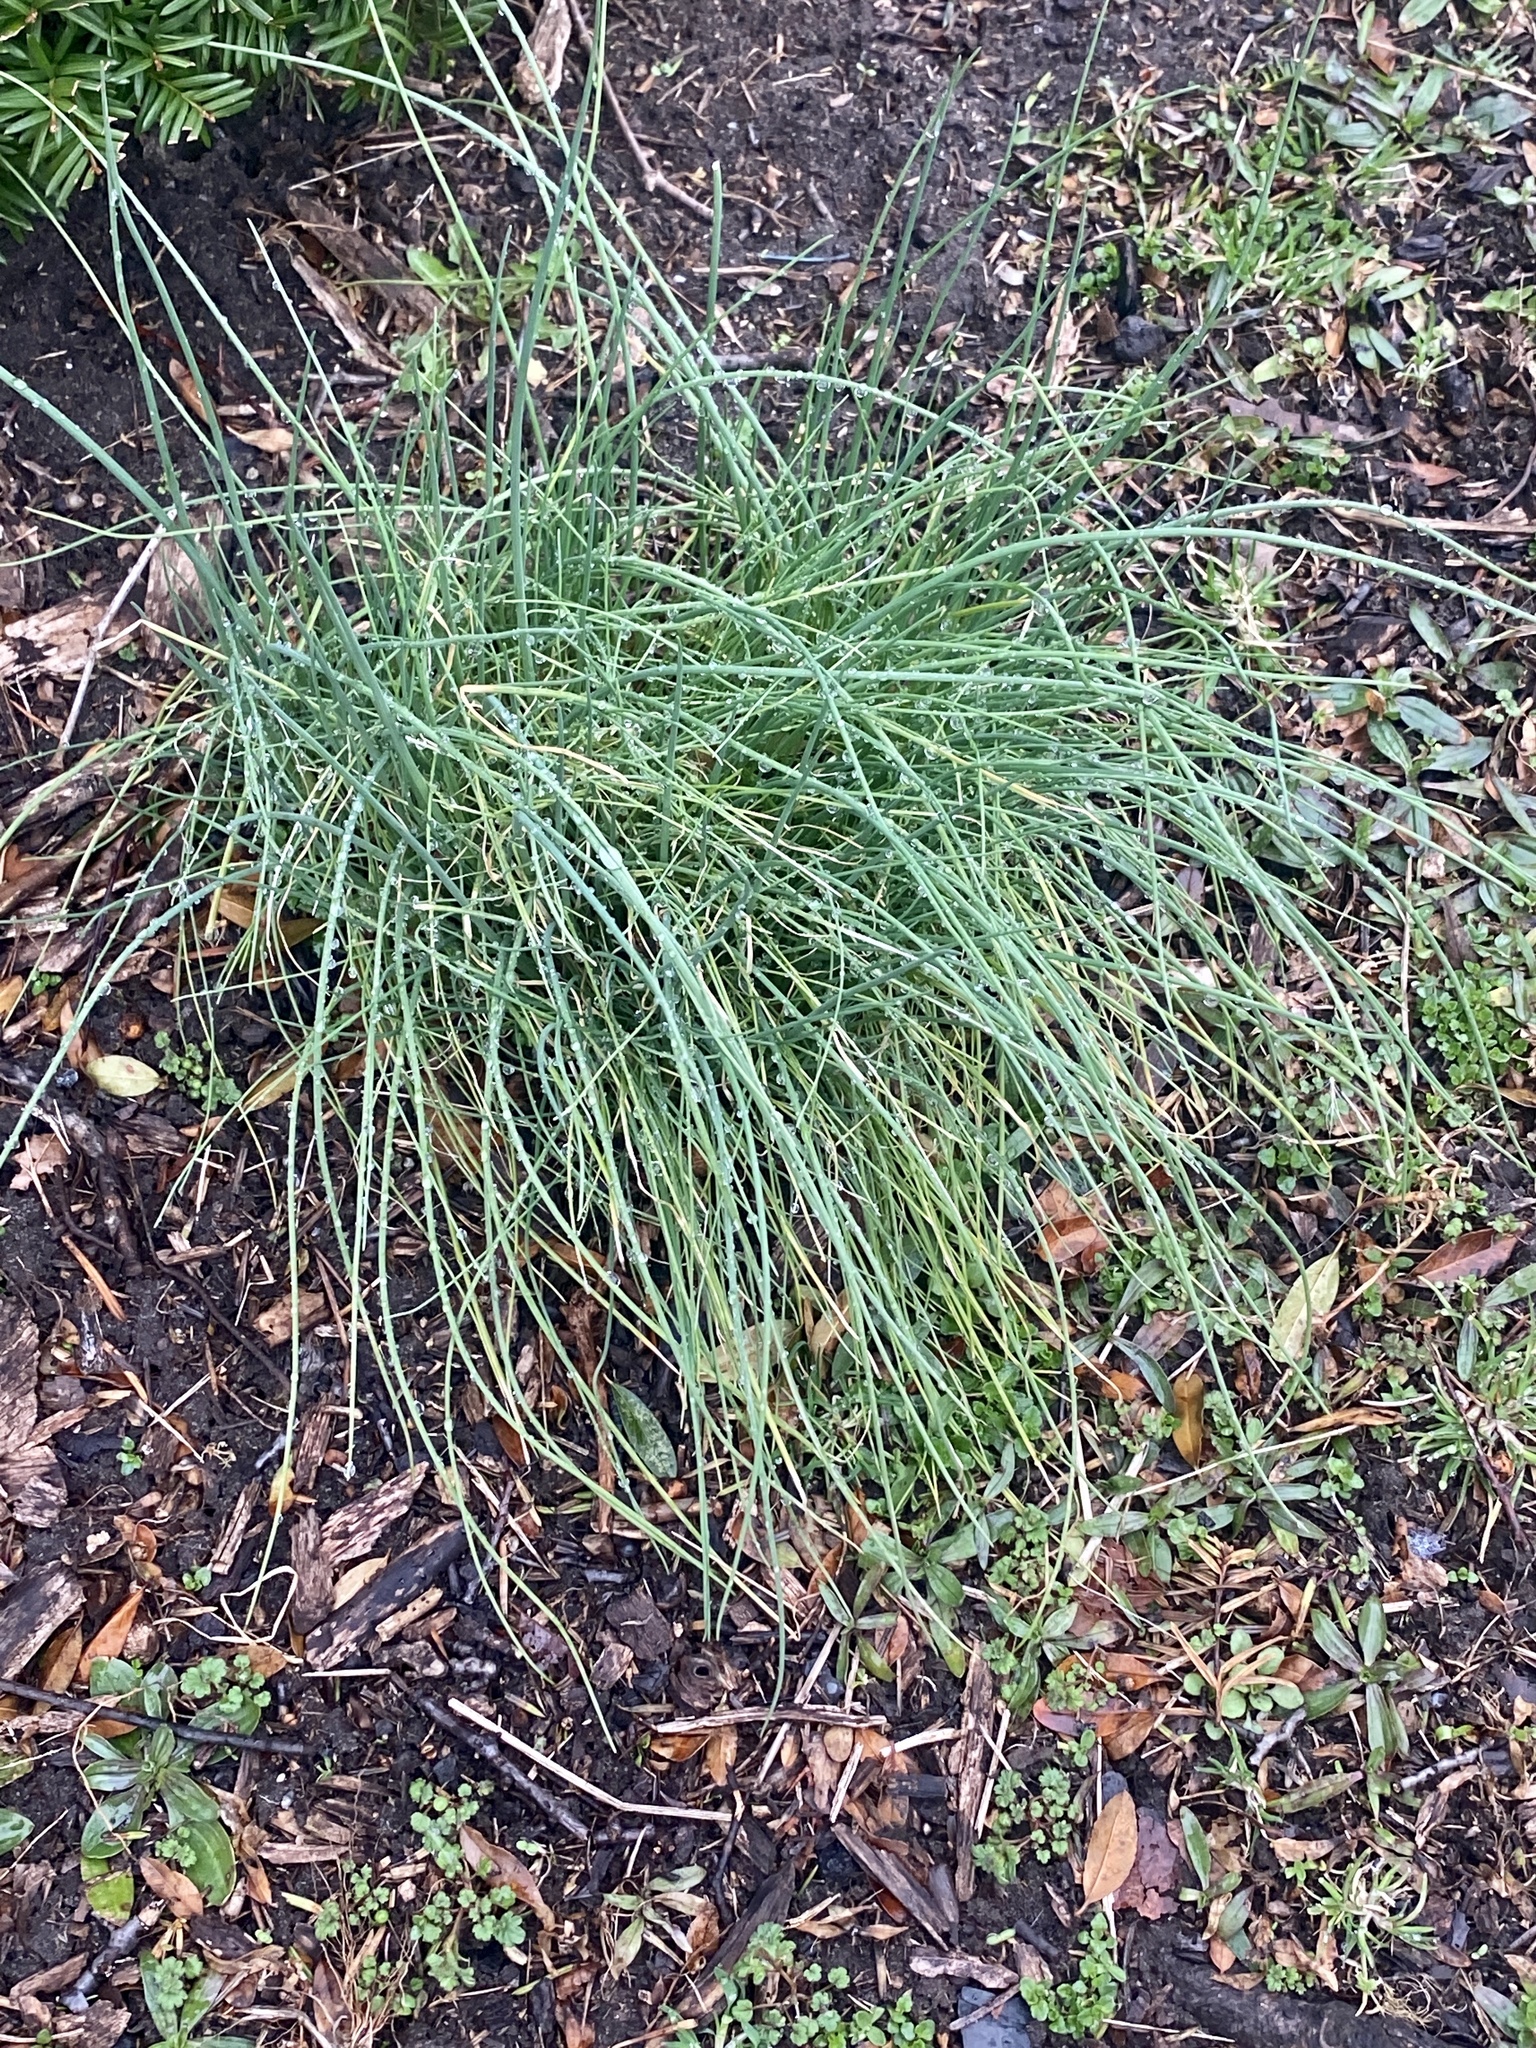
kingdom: Plantae
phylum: Tracheophyta
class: Liliopsida
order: Asparagales
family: Amaryllidaceae
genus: Allium
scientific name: Allium vineale
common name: Crow garlic
